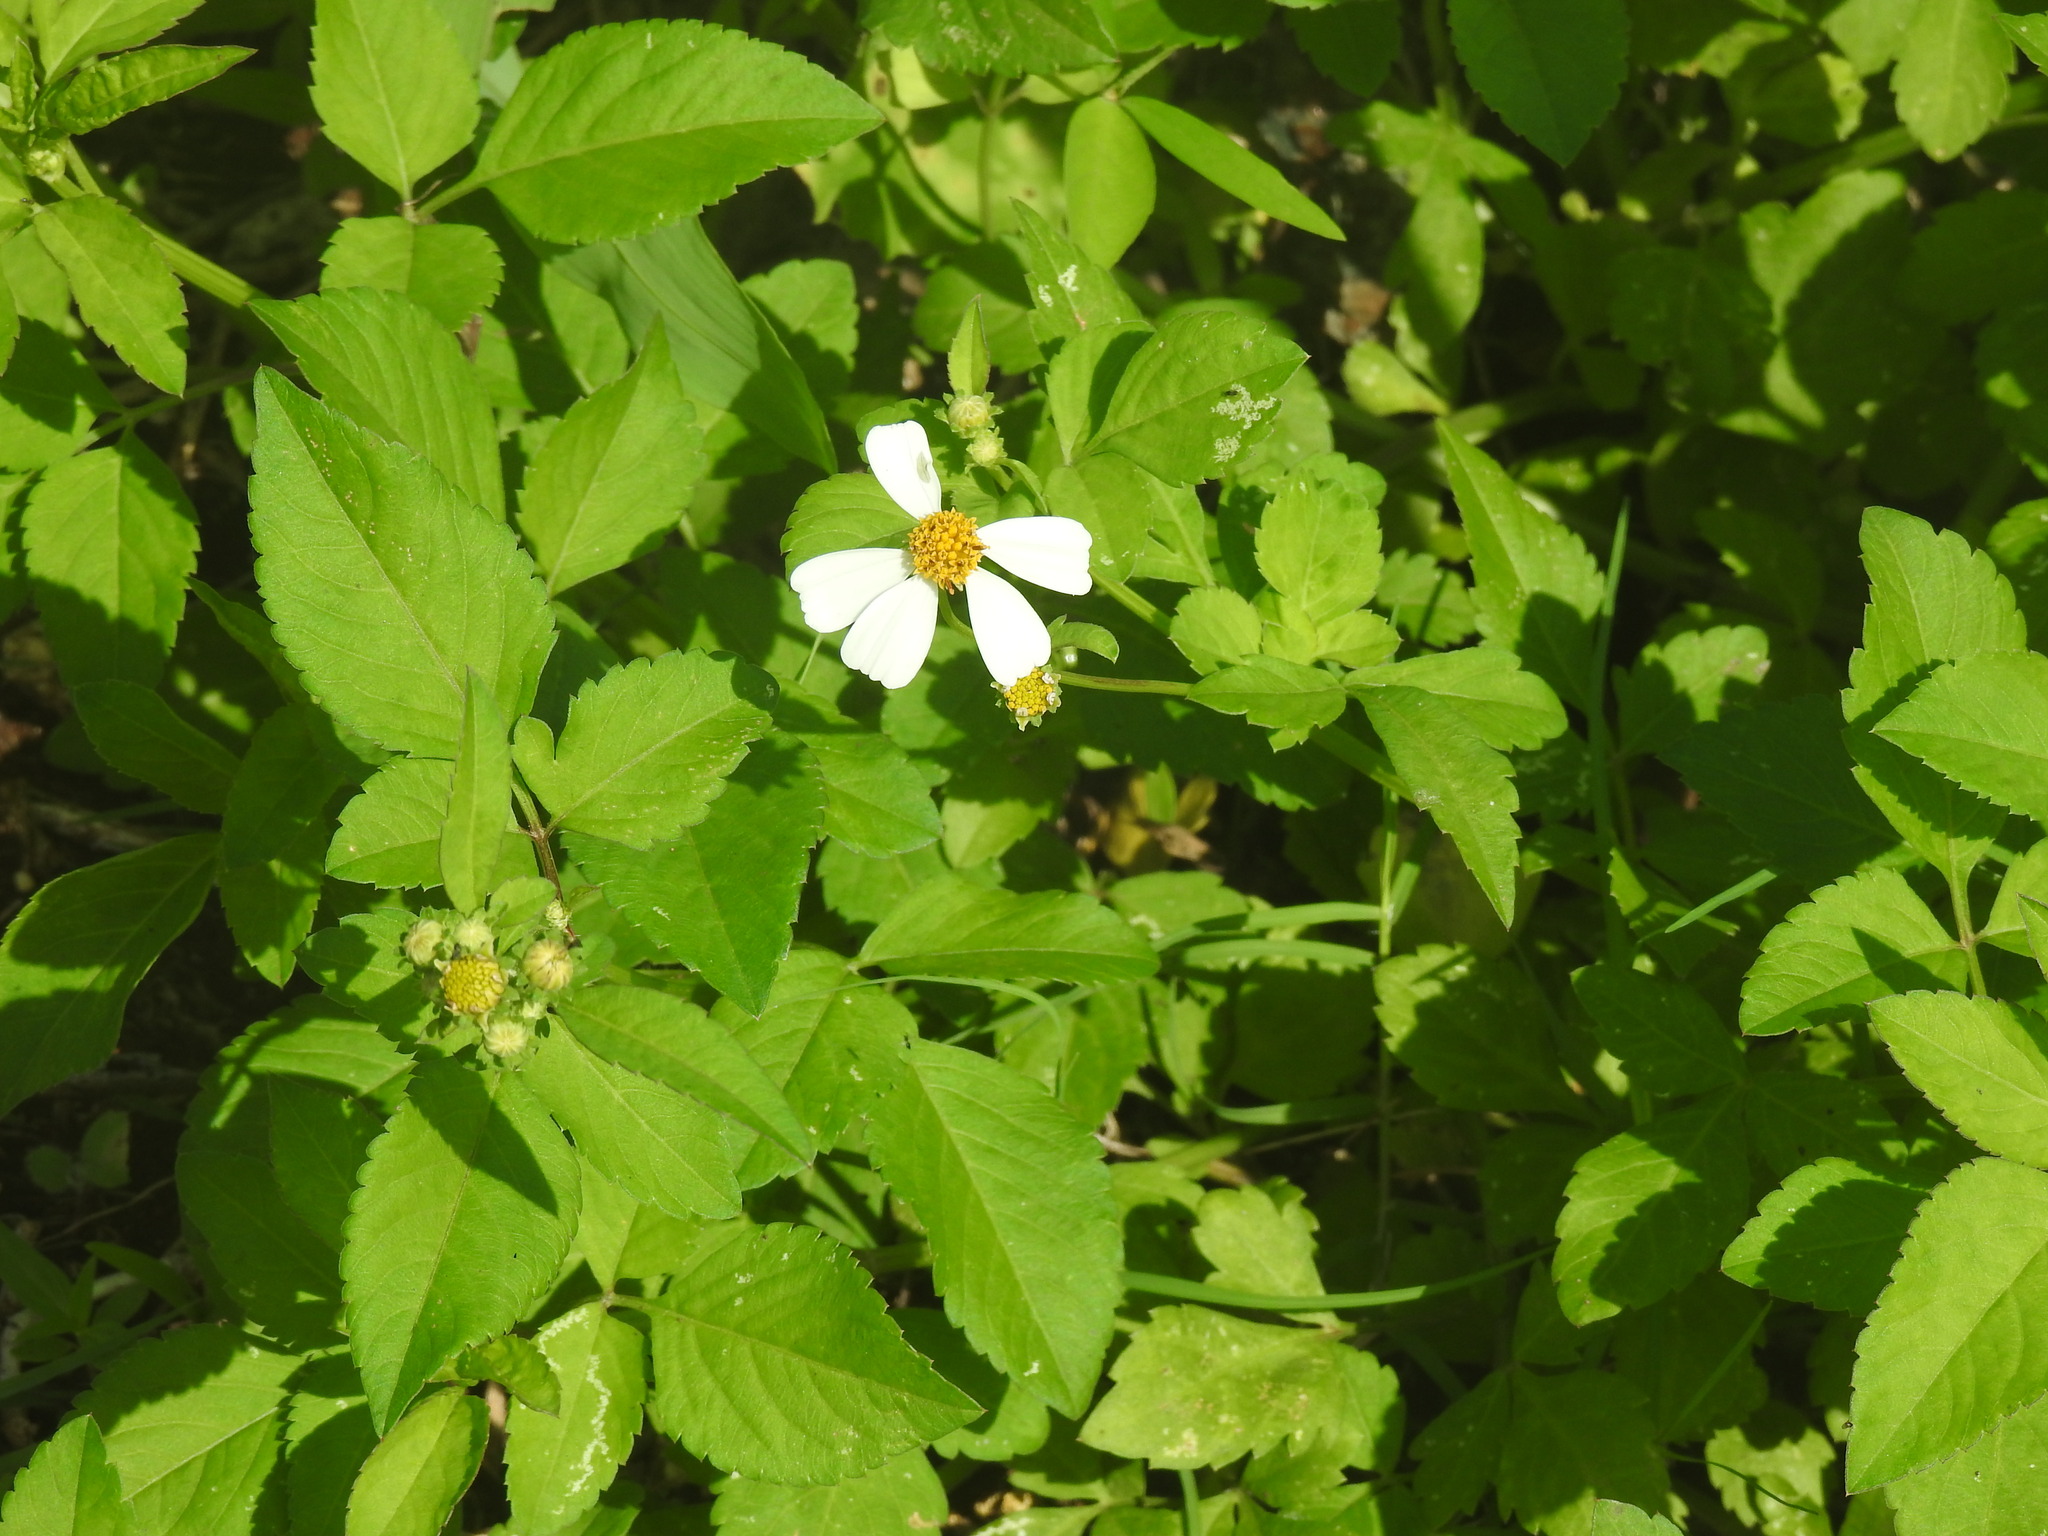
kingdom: Plantae
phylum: Tracheophyta
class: Magnoliopsida
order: Asterales
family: Asteraceae
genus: Bidens
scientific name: Bidens alba
